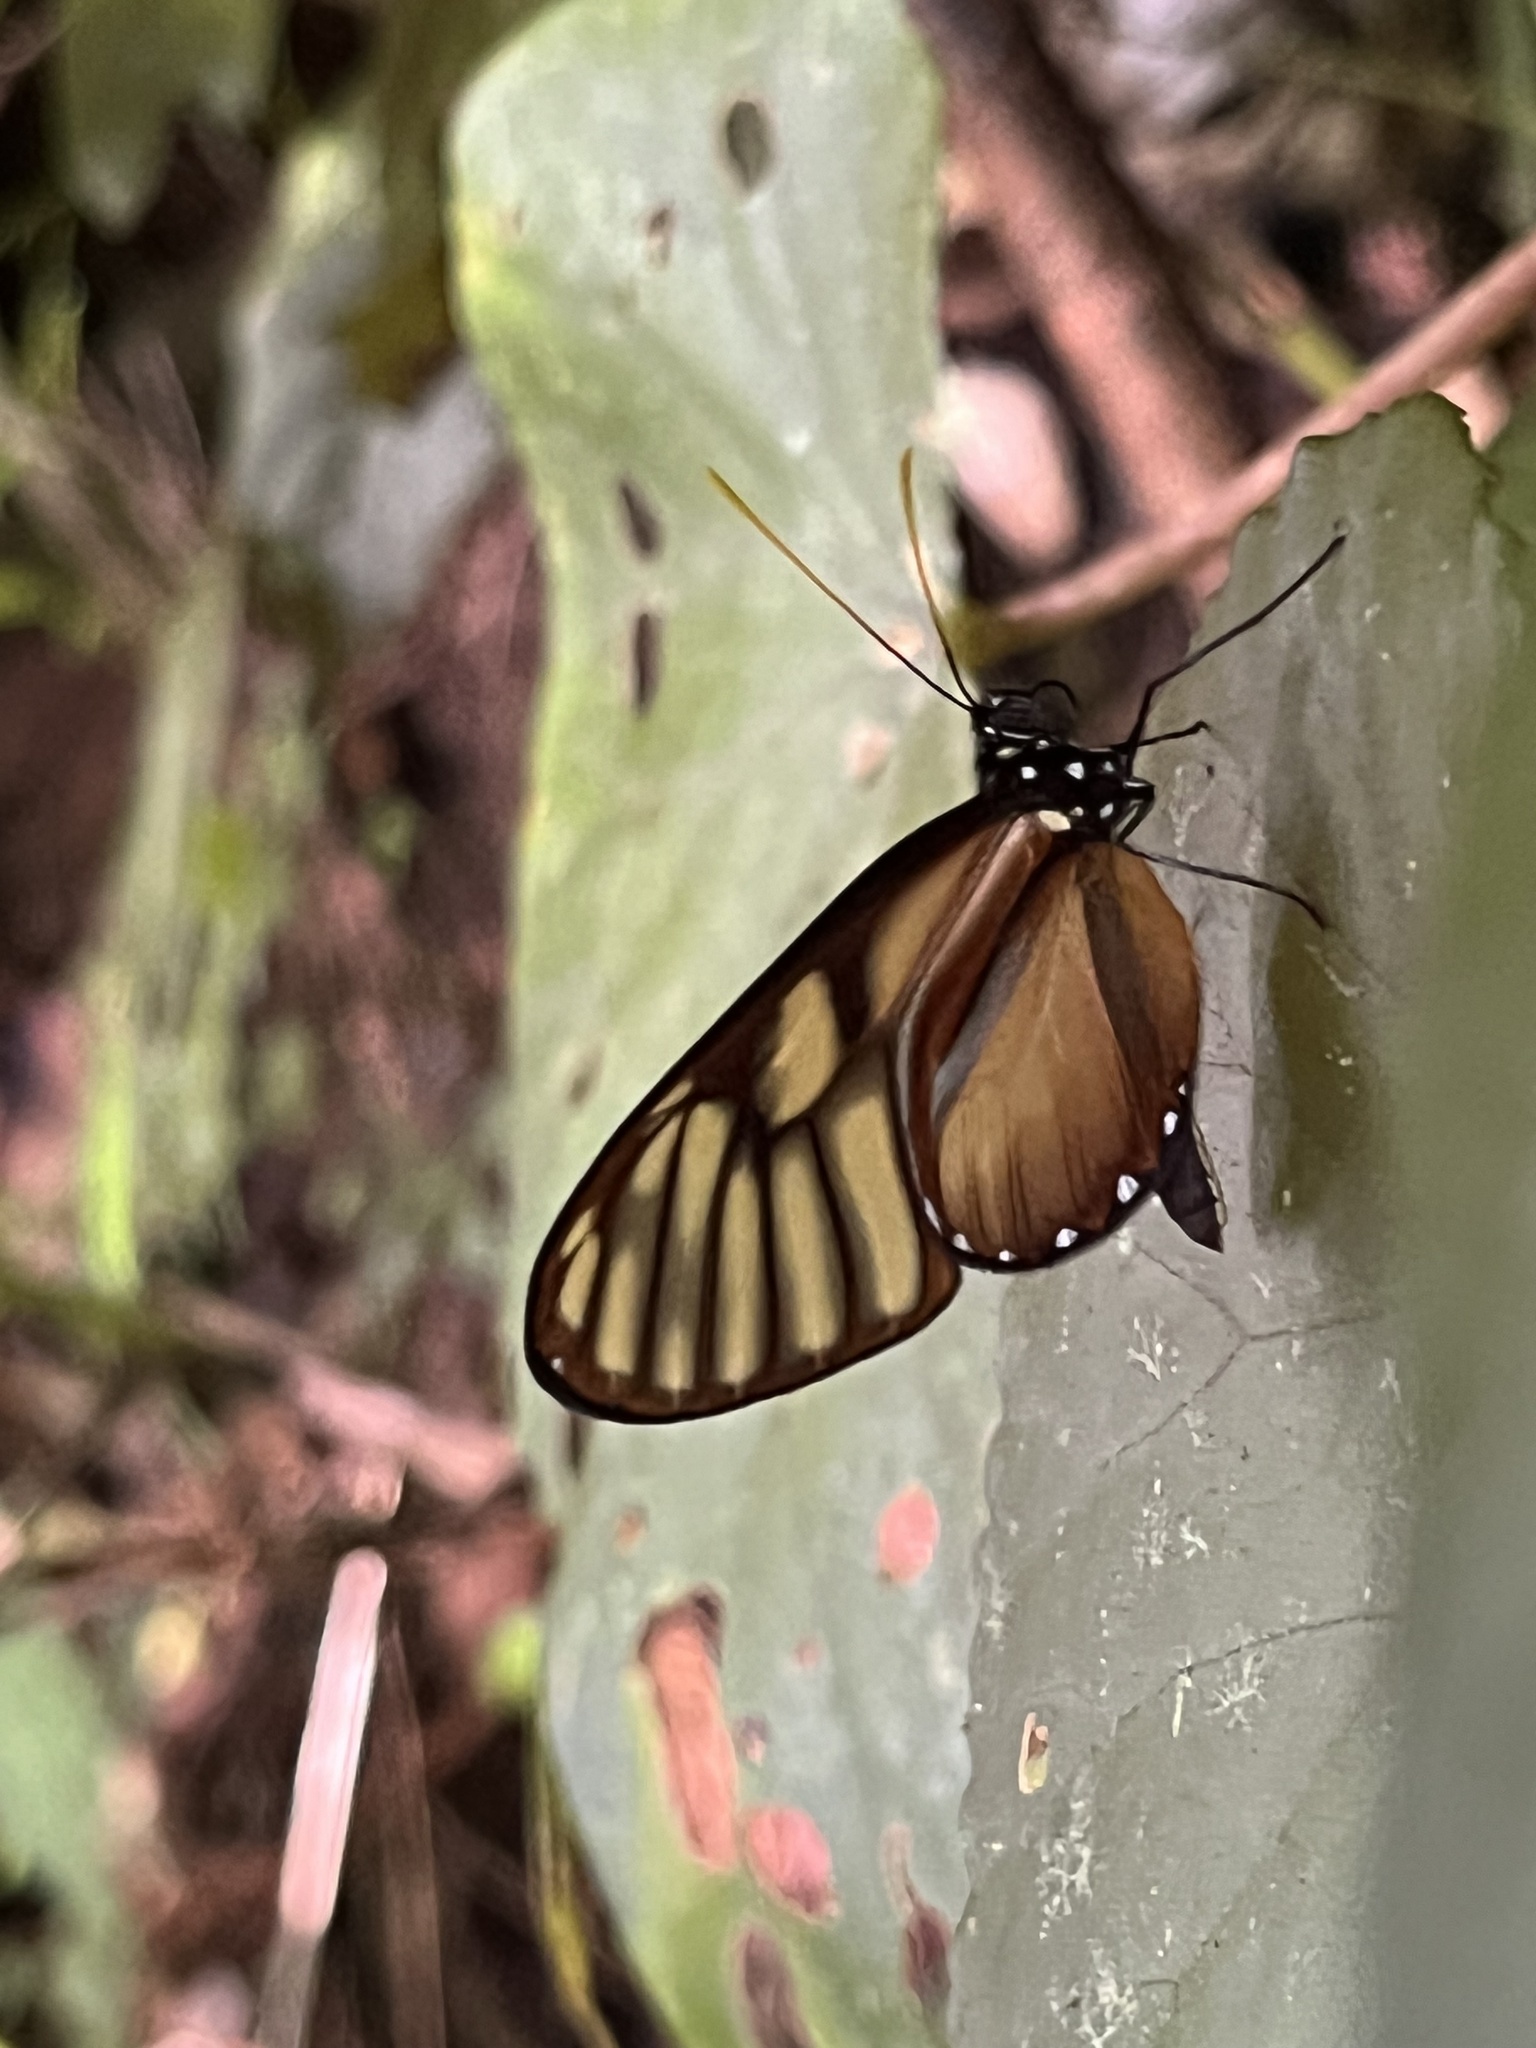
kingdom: Animalia
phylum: Arthropoda
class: Insecta
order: Lepidoptera
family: Nymphalidae
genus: Dircenna
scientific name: Dircenna klugii
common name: Klug’s clearwing
